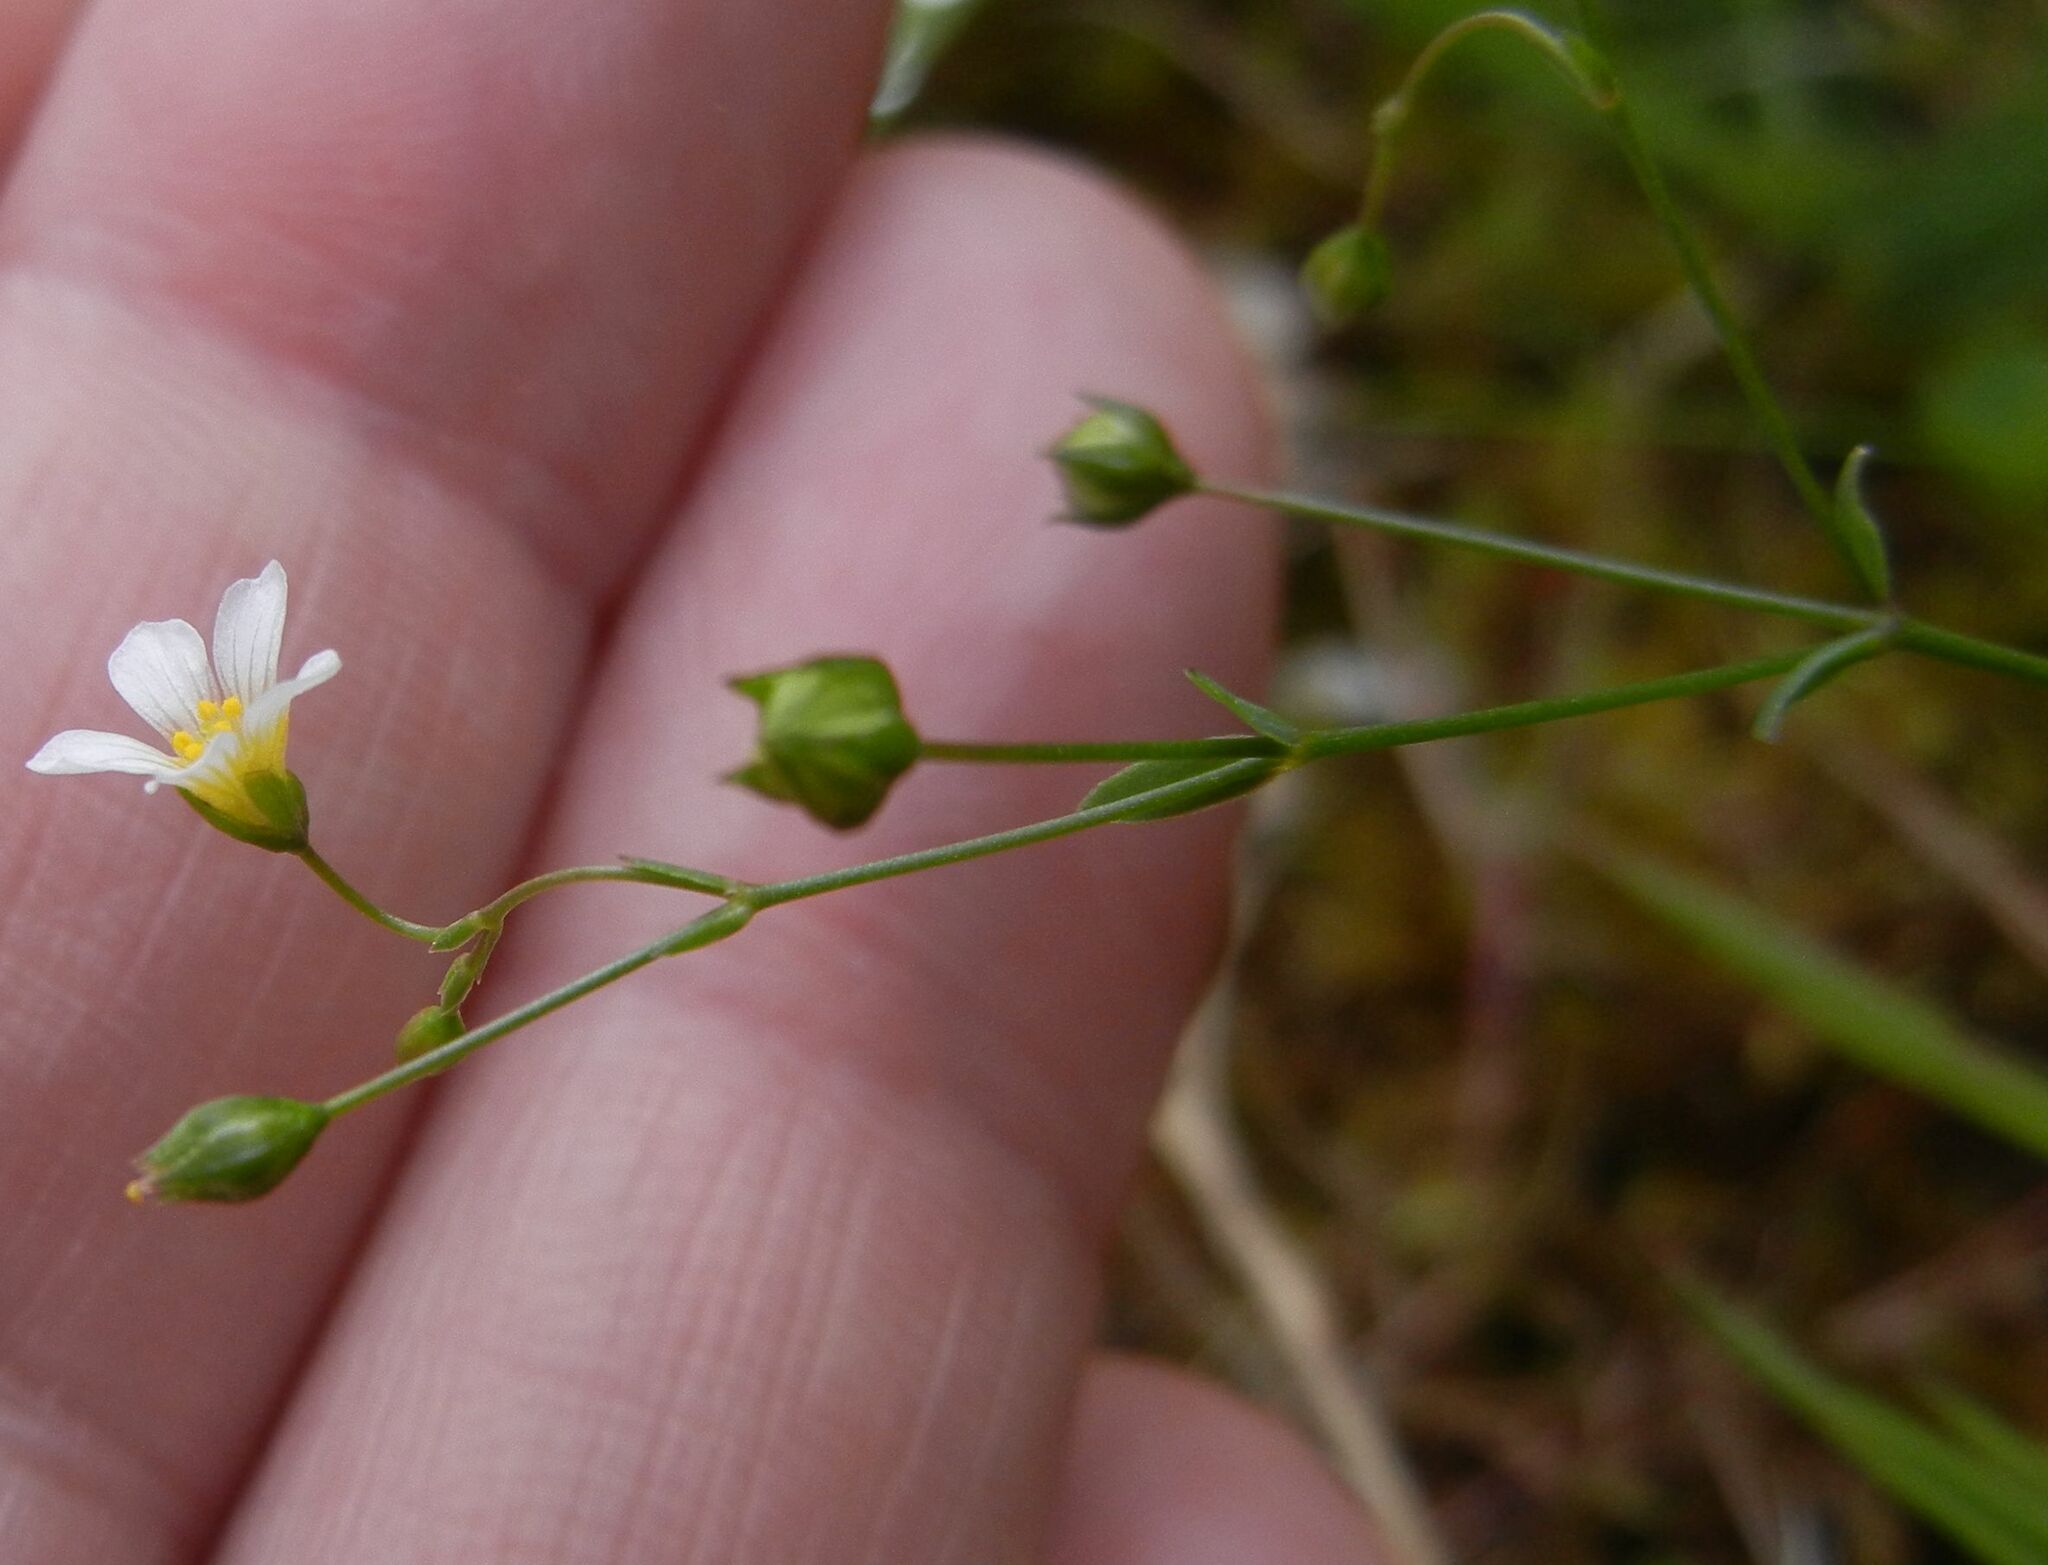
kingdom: Plantae
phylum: Tracheophyta
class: Magnoliopsida
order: Malpighiales
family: Linaceae
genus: Linum
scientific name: Linum catharticum
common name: Fairy flax
